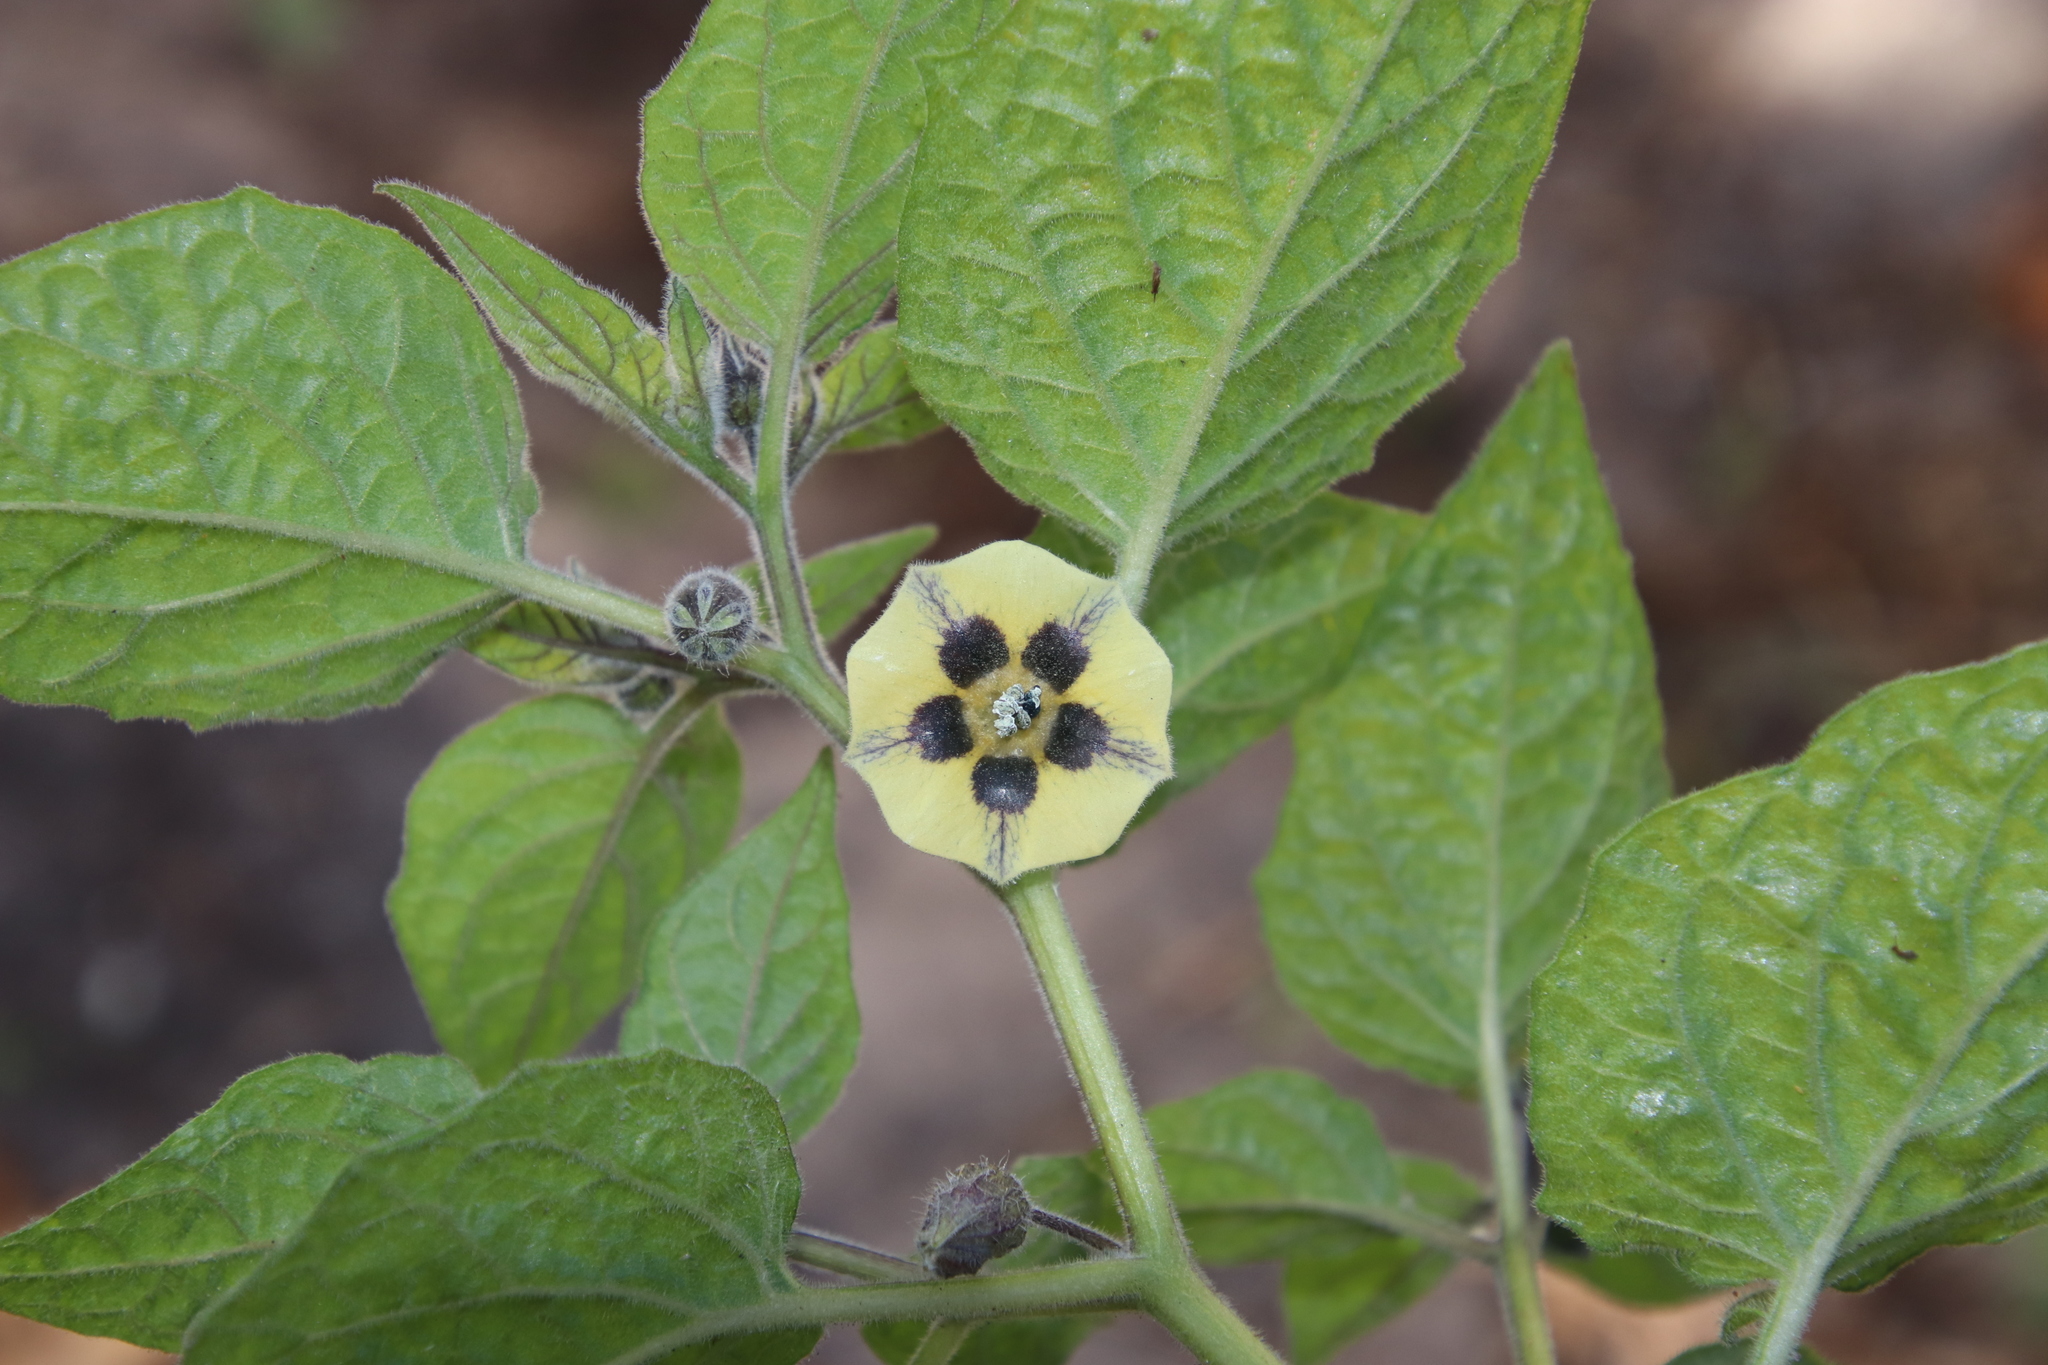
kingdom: Plantae
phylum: Tracheophyta
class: Magnoliopsida
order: Solanales
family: Solanaceae
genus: Physalis
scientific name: Physalis peruviana
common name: Cape-gooseberry
